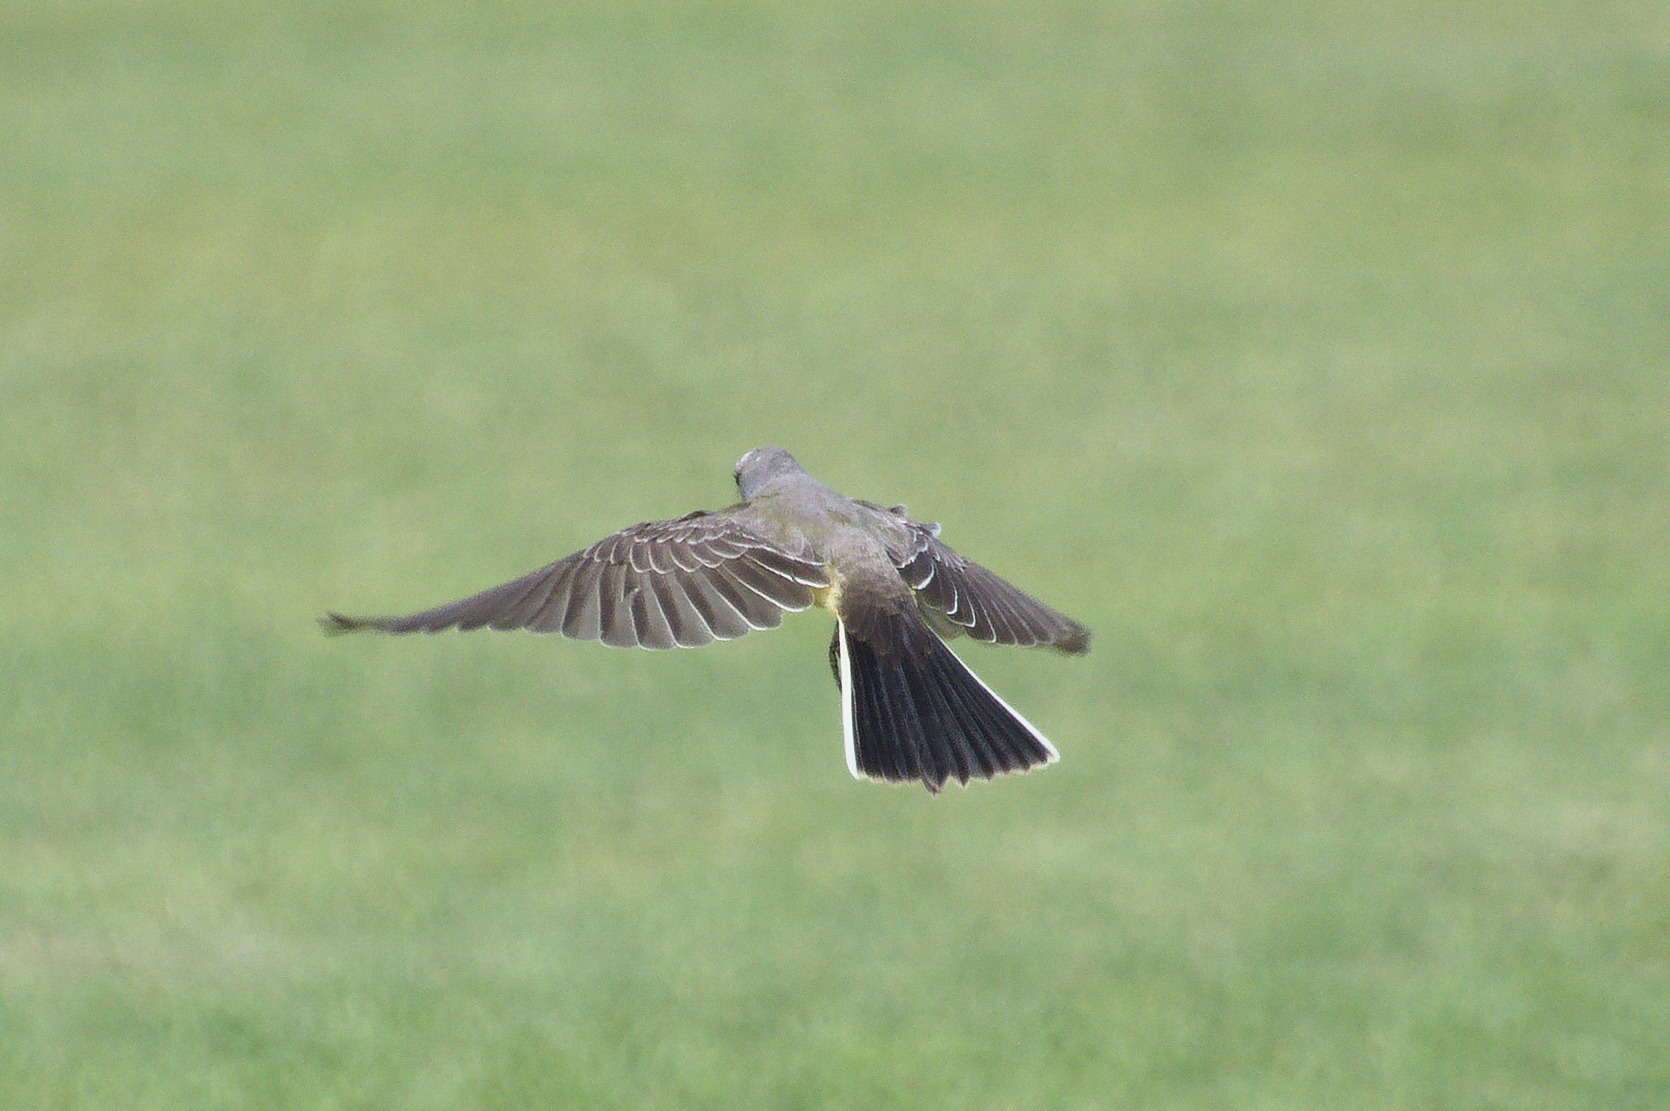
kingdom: Animalia
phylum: Chordata
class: Aves
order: Passeriformes
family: Tyrannidae
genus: Tyrannus
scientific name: Tyrannus verticalis
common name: Western kingbird
